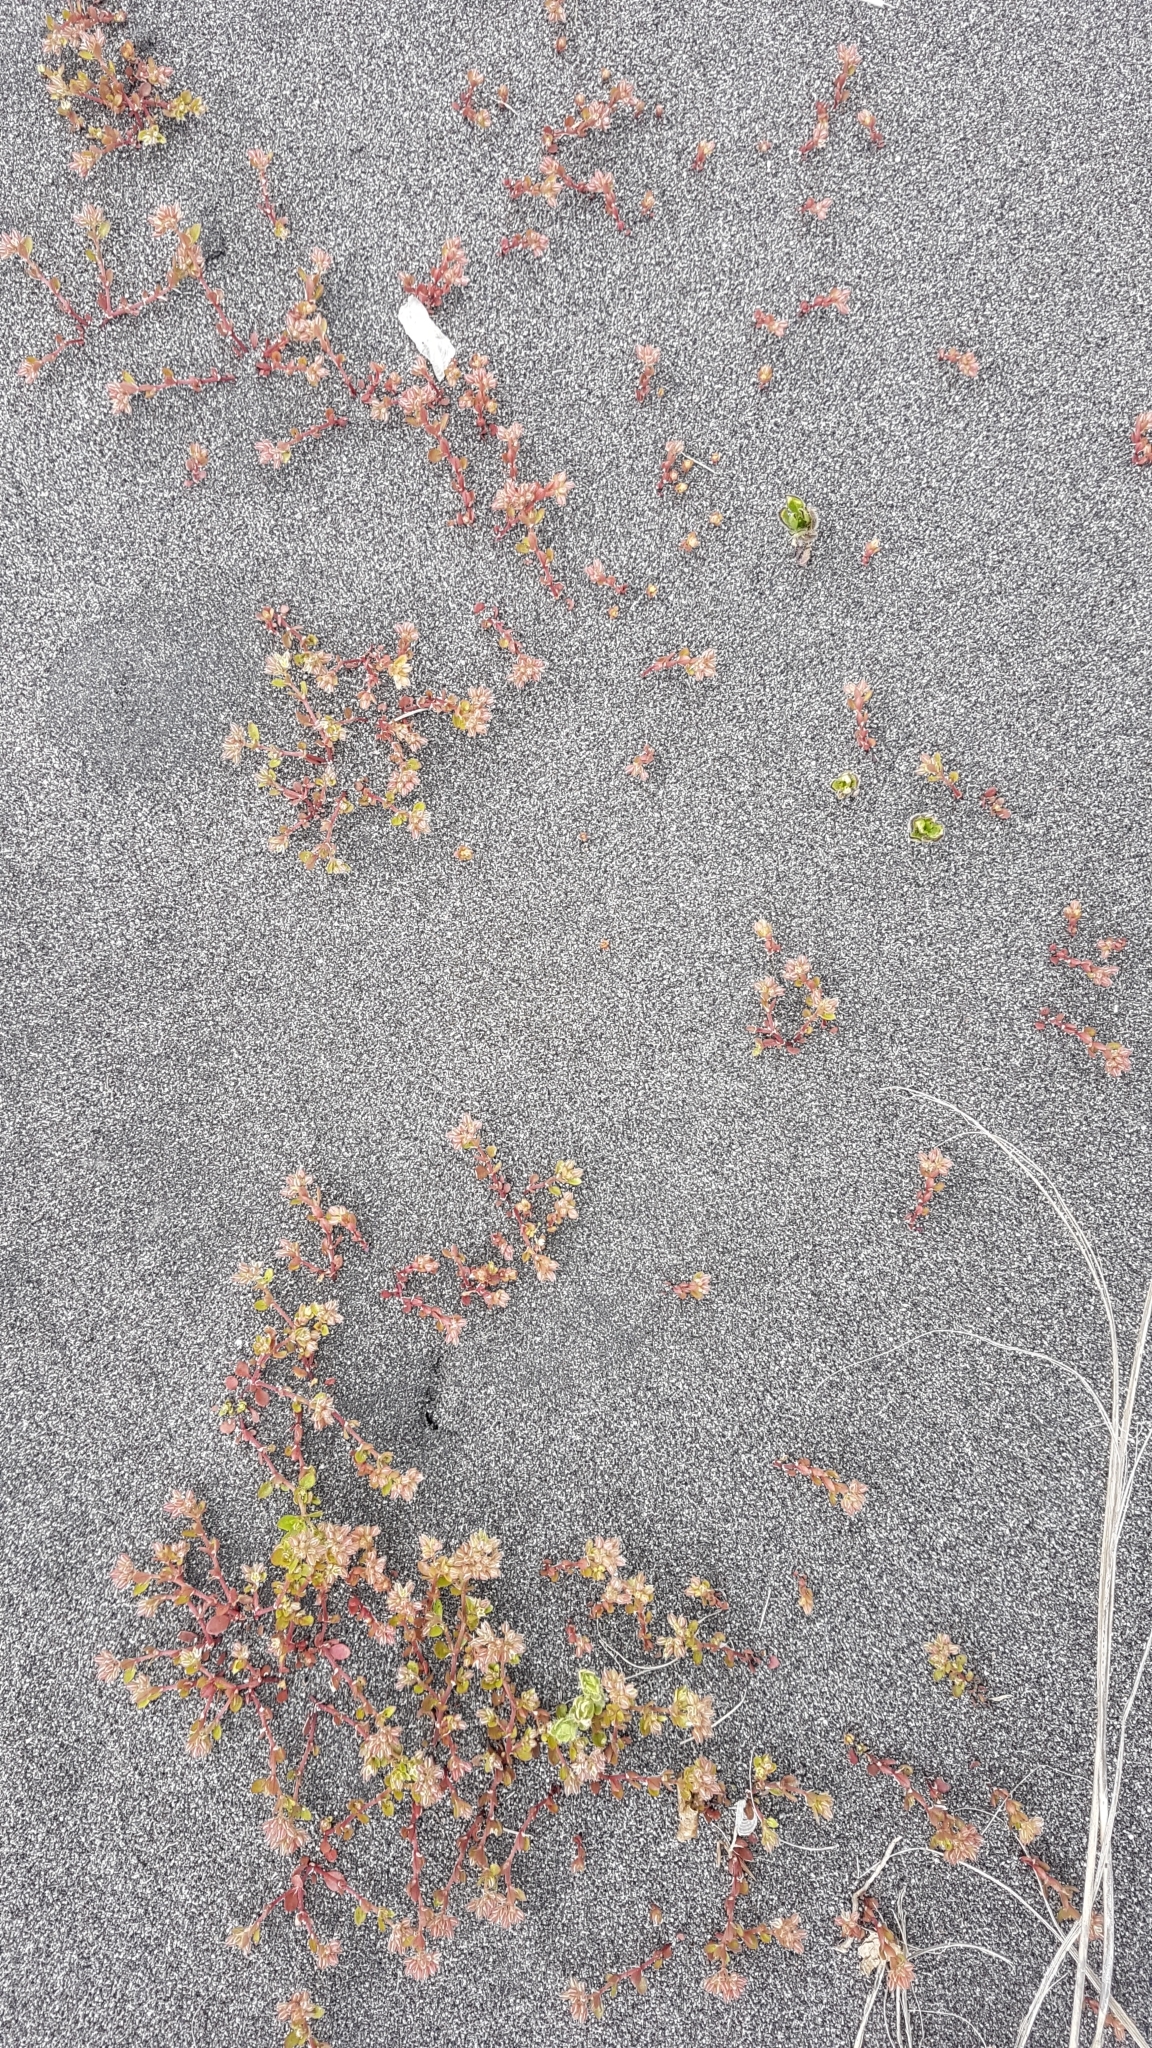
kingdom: Plantae
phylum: Tracheophyta
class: Magnoliopsida
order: Caryophyllales
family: Caryophyllaceae
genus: Polycarpon
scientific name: Polycarpon tetraphyllum
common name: Four-leaved all-seed
